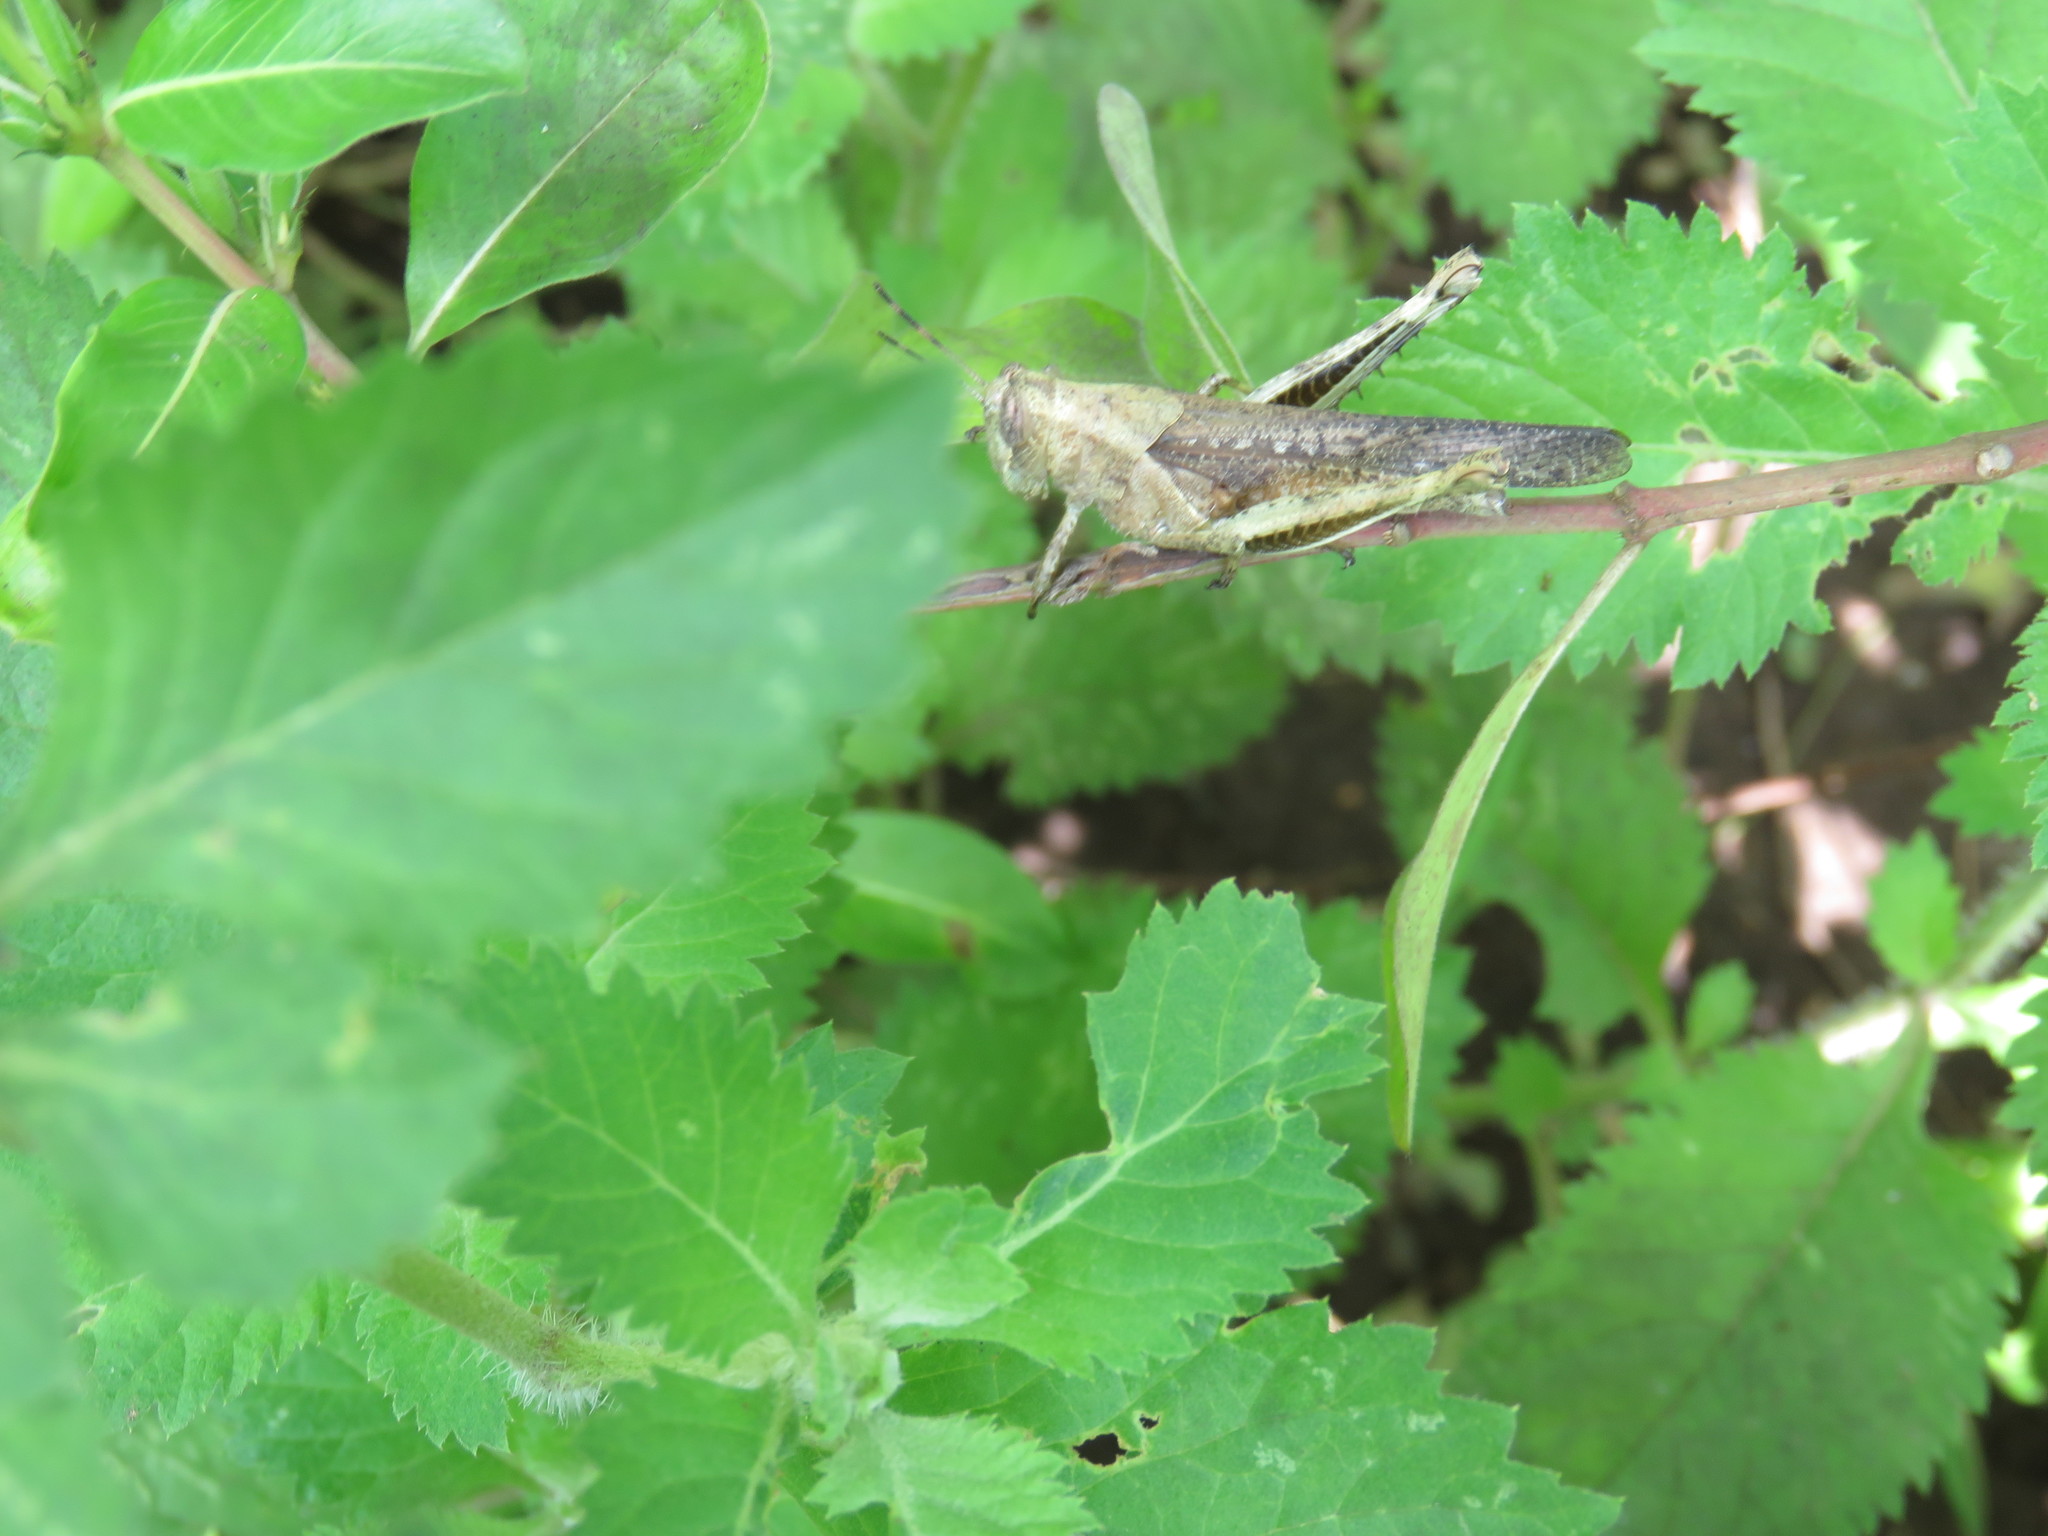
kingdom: Animalia
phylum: Arthropoda
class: Insecta
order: Orthoptera
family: Acrididae
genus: Abracris
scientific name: Abracris flavolineata
